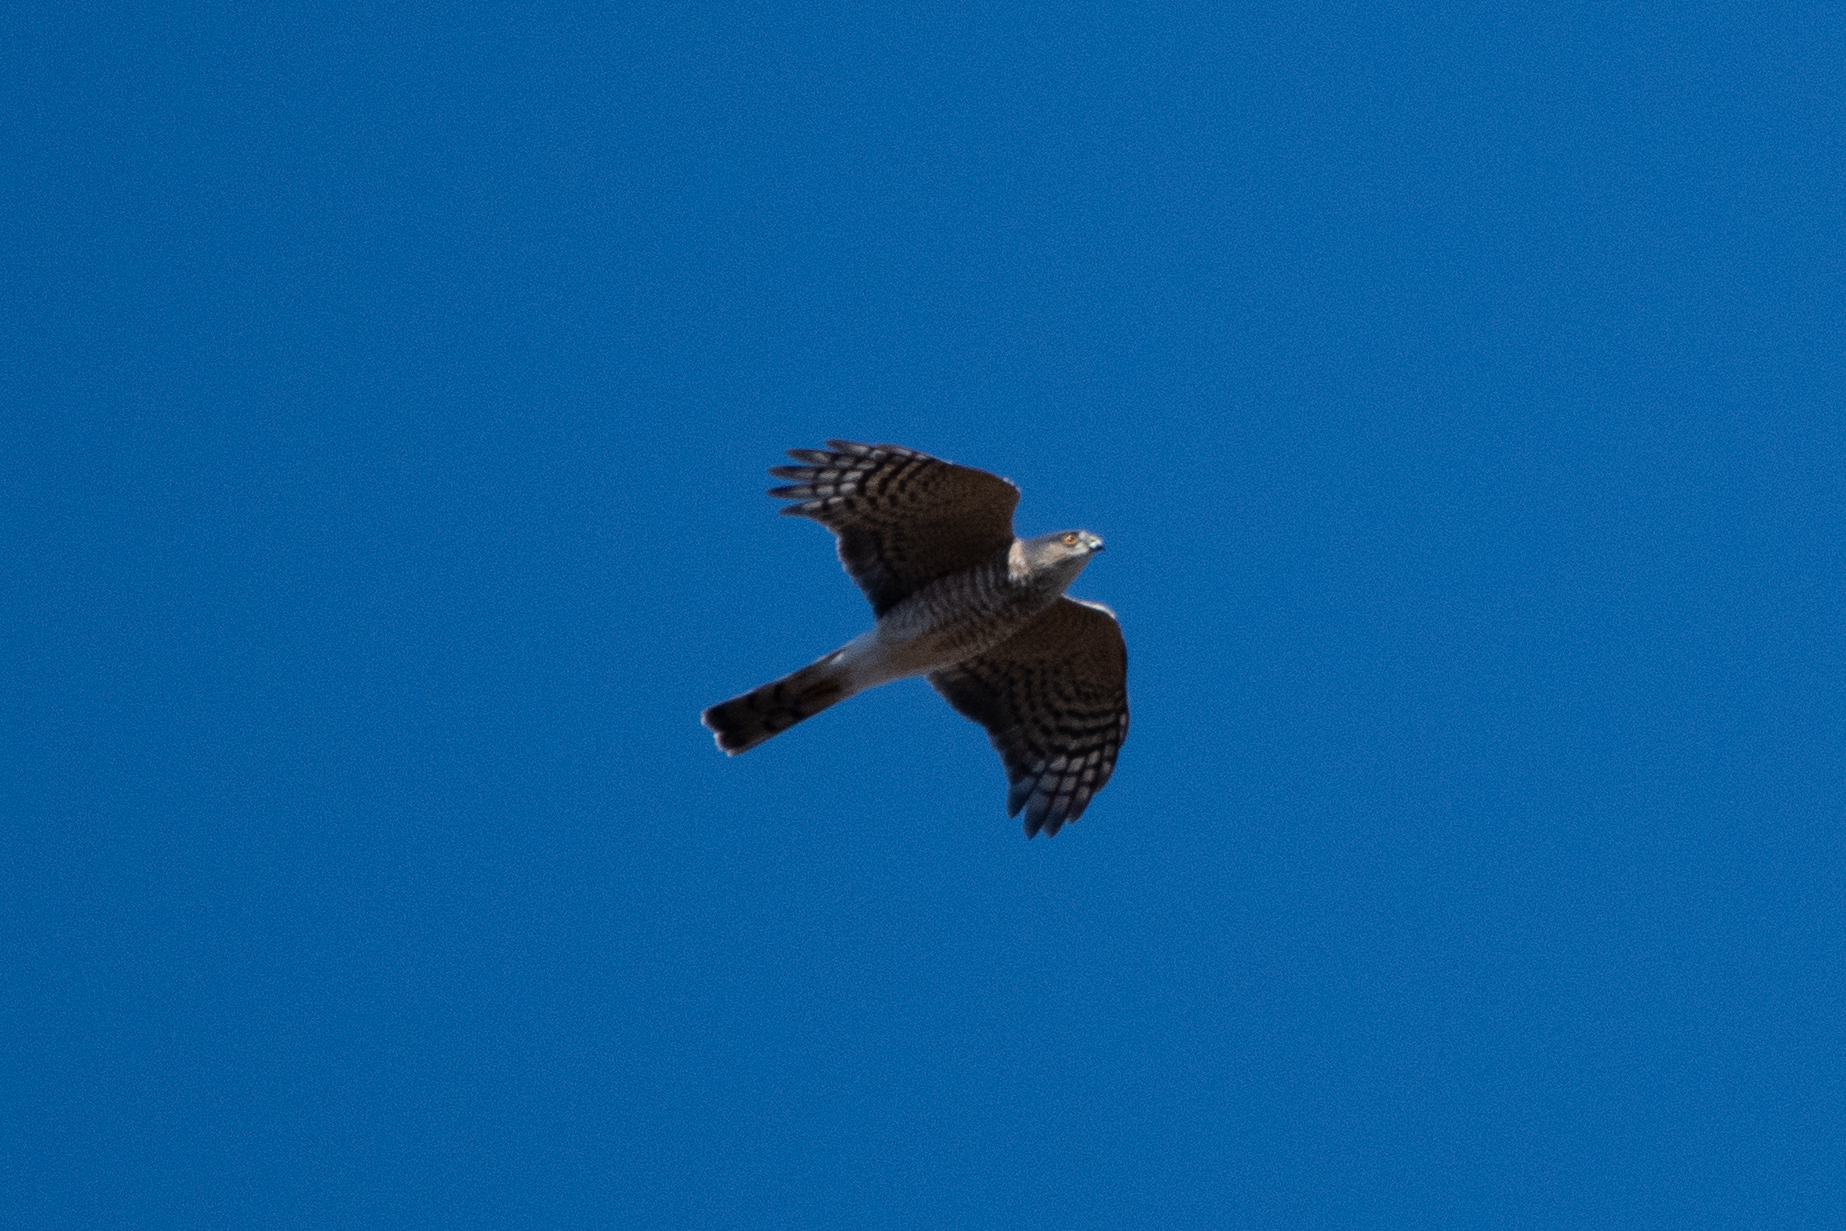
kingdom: Animalia
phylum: Chordata
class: Aves
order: Accipitriformes
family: Accipitridae
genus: Accipiter
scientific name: Accipiter striatus
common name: Sharp-shinned hawk
